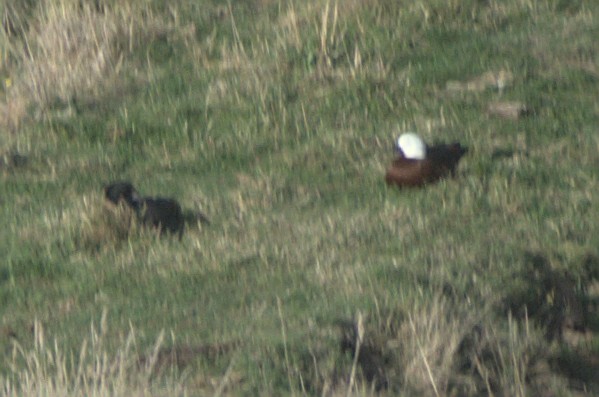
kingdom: Animalia
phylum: Chordata
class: Aves
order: Anseriformes
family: Anatidae
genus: Tadorna
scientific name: Tadorna variegata
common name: Paradise shelduck
